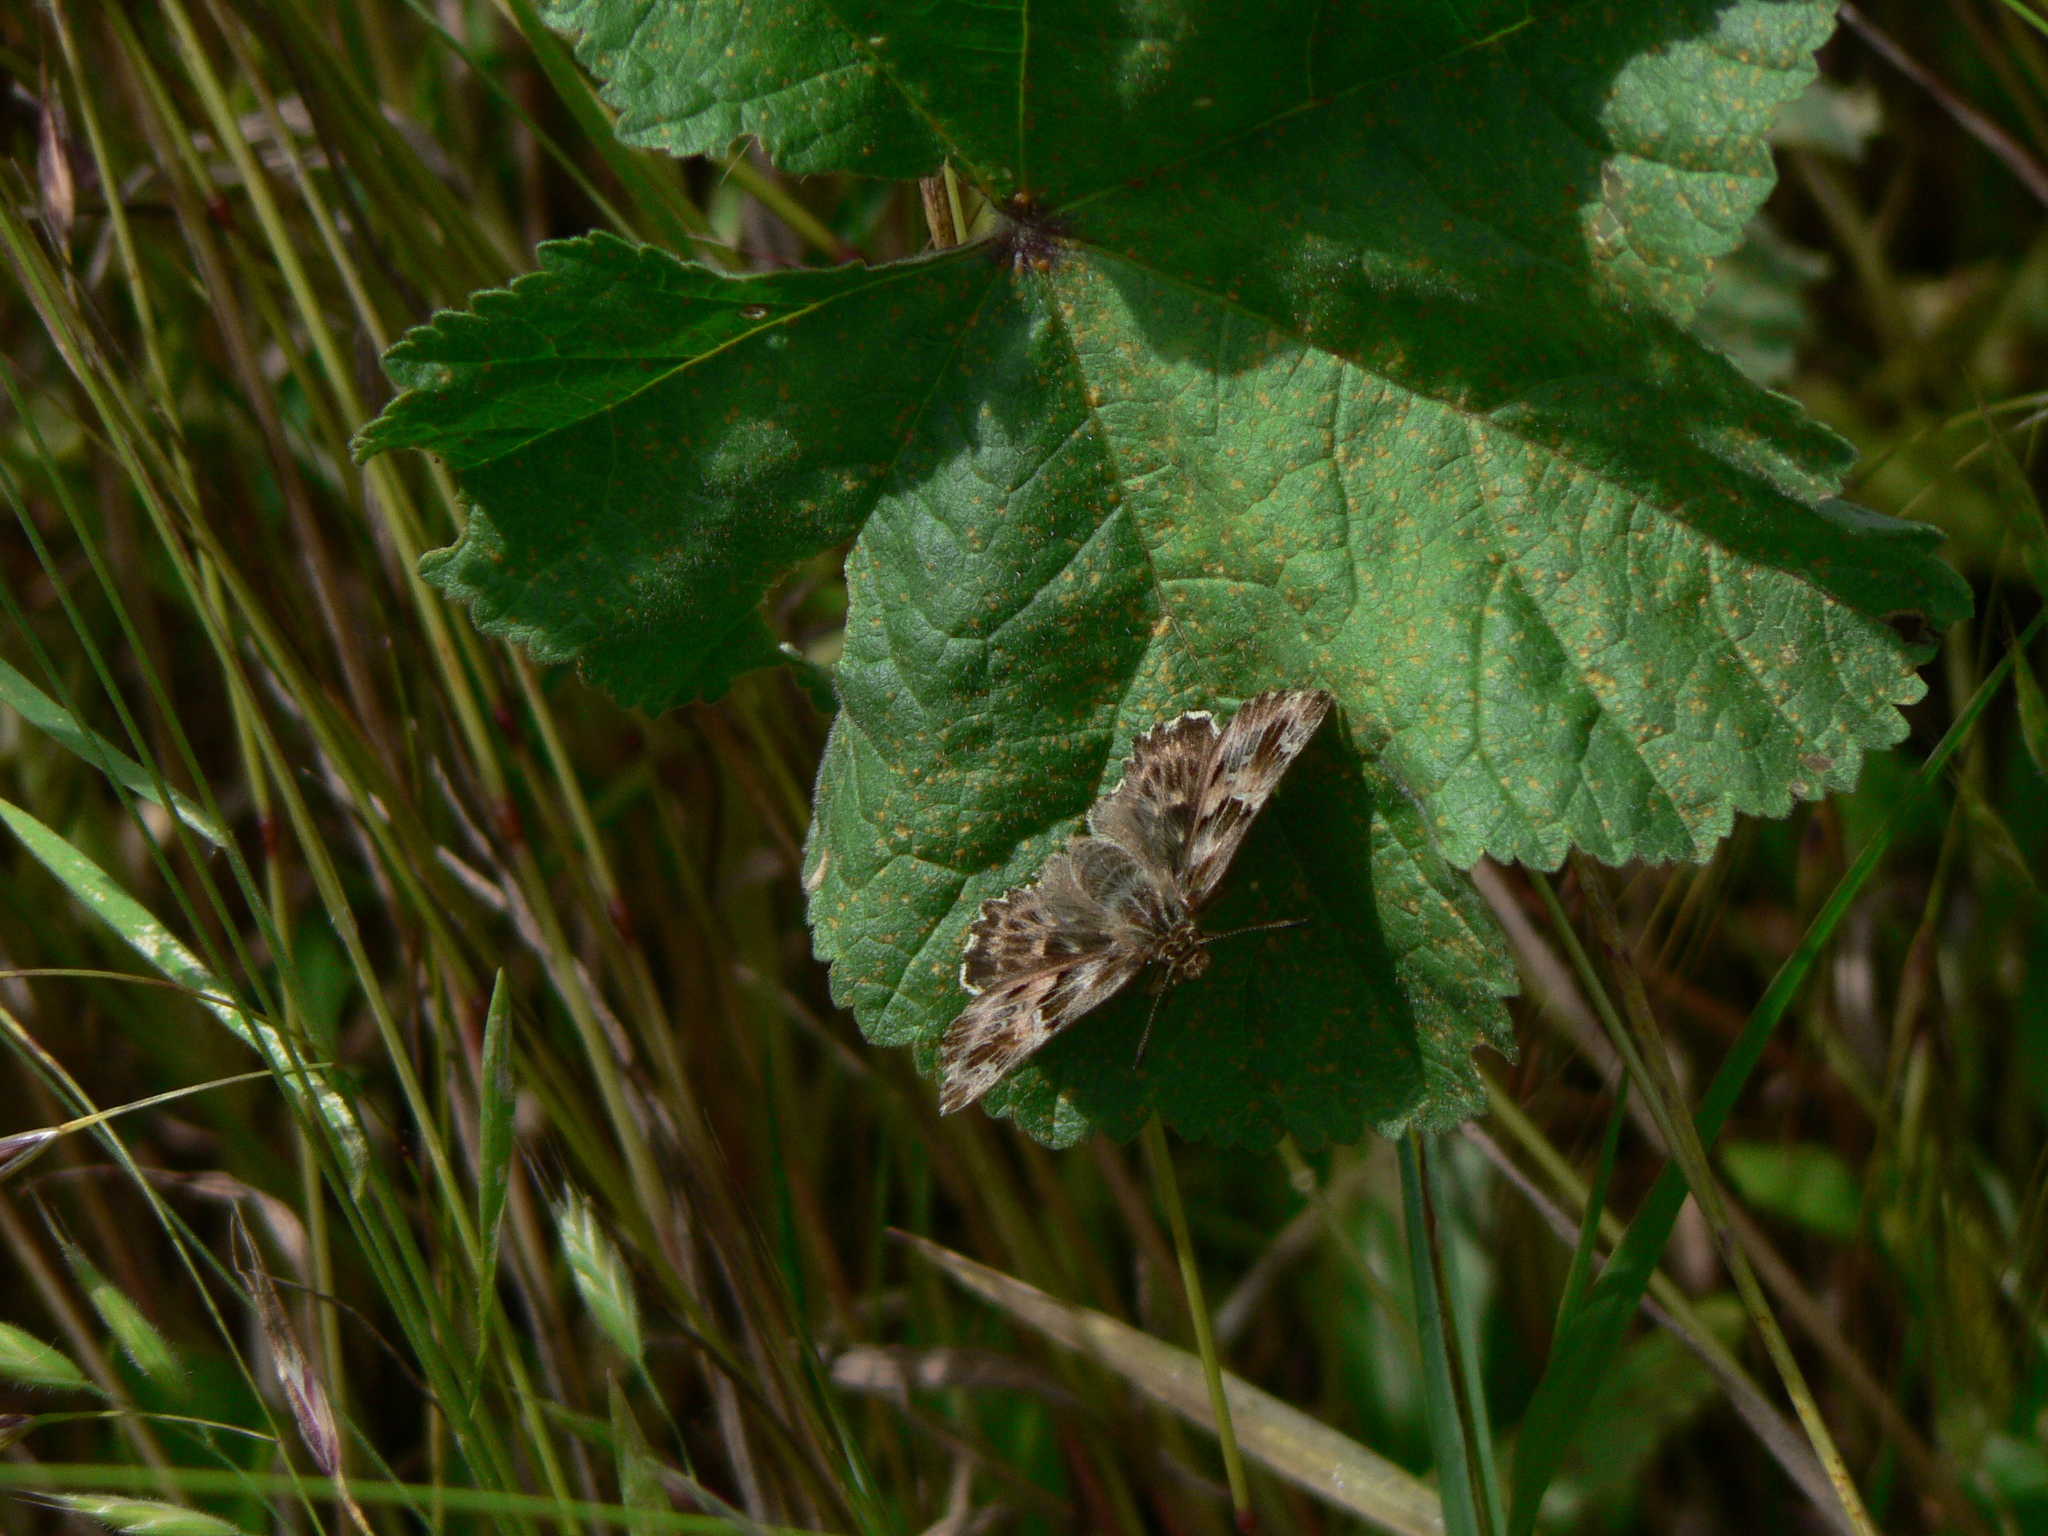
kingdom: Animalia
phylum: Arthropoda
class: Insecta
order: Lepidoptera
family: Hesperiidae
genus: Carcharodus
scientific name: Carcharodus alceae
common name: Mallow skipper
